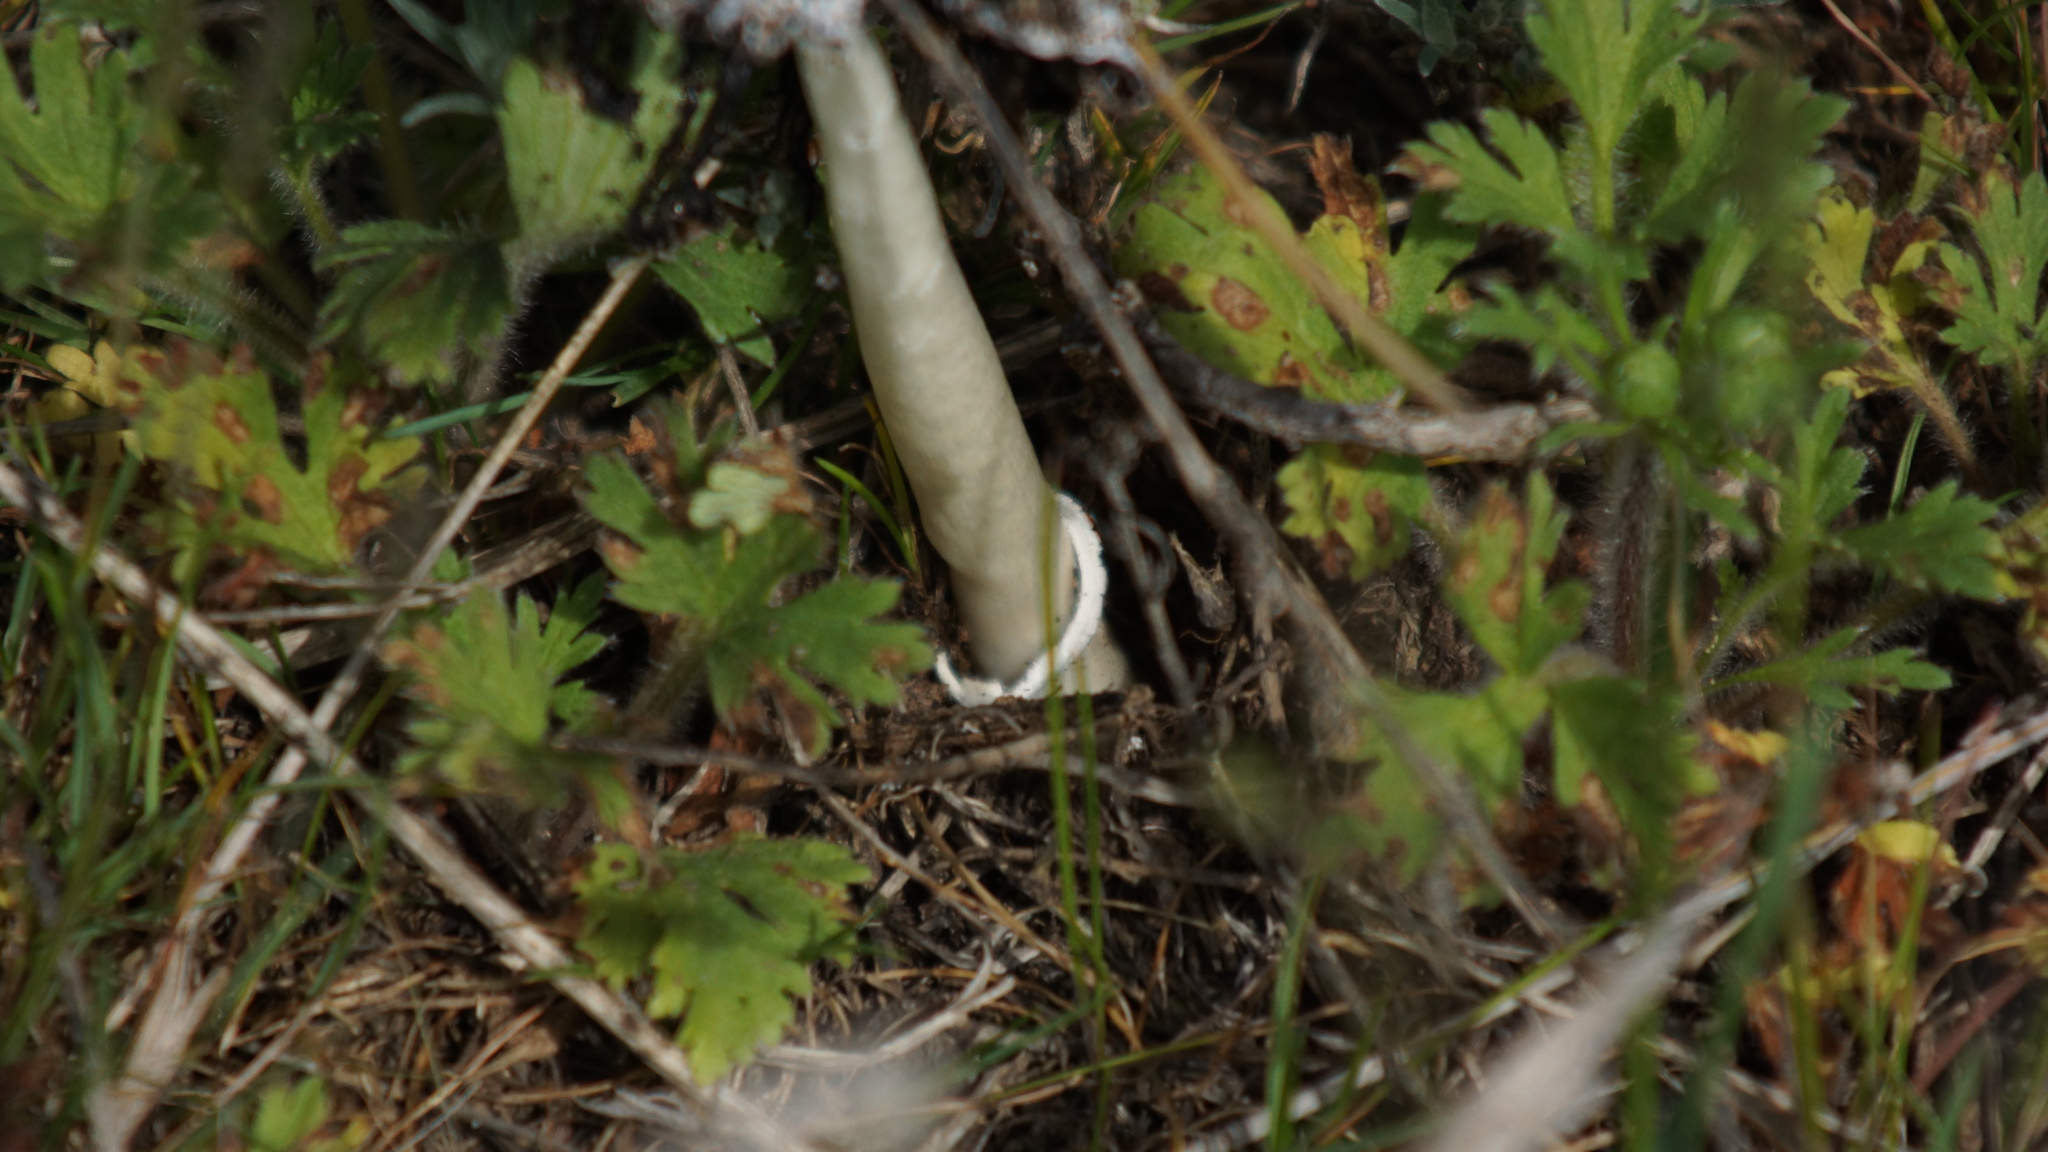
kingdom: Fungi
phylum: Basidiomycota
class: Agaricomycetes
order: Agaricales
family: Agaricaceae
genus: Coprinus
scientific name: Coprinus xerophilus
